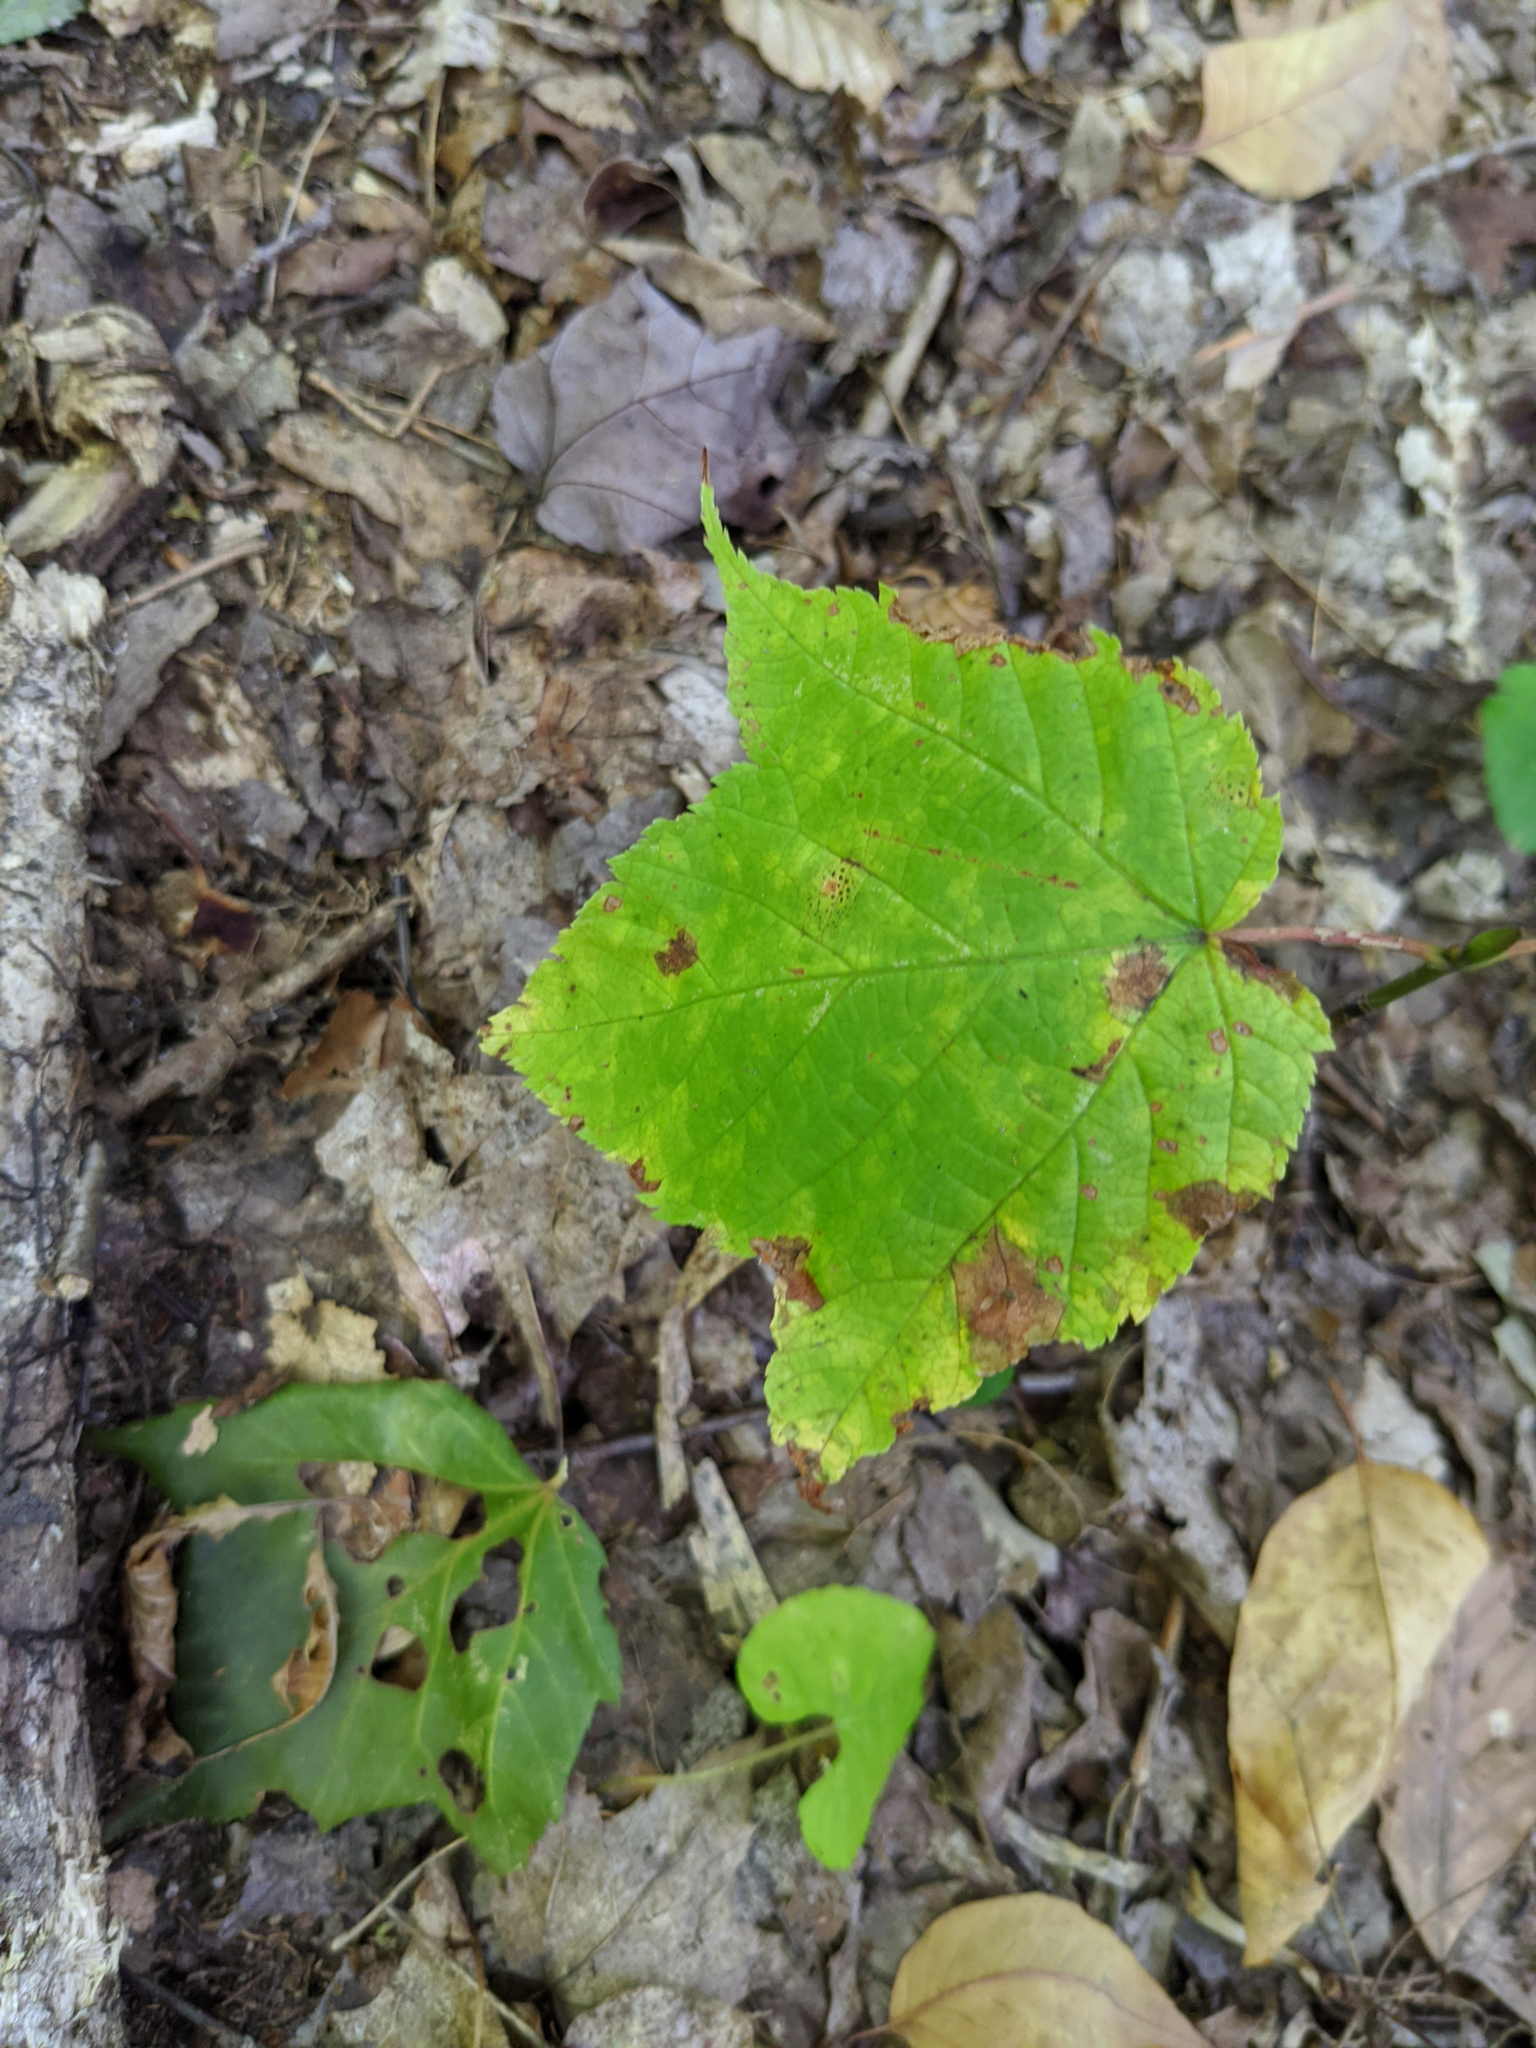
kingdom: Plantae
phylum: Tracheophyta
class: Magnoliopsida
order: Sapindales
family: Sapindaceae
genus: Acer
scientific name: Acer pensylvanicum
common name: Moosewood
